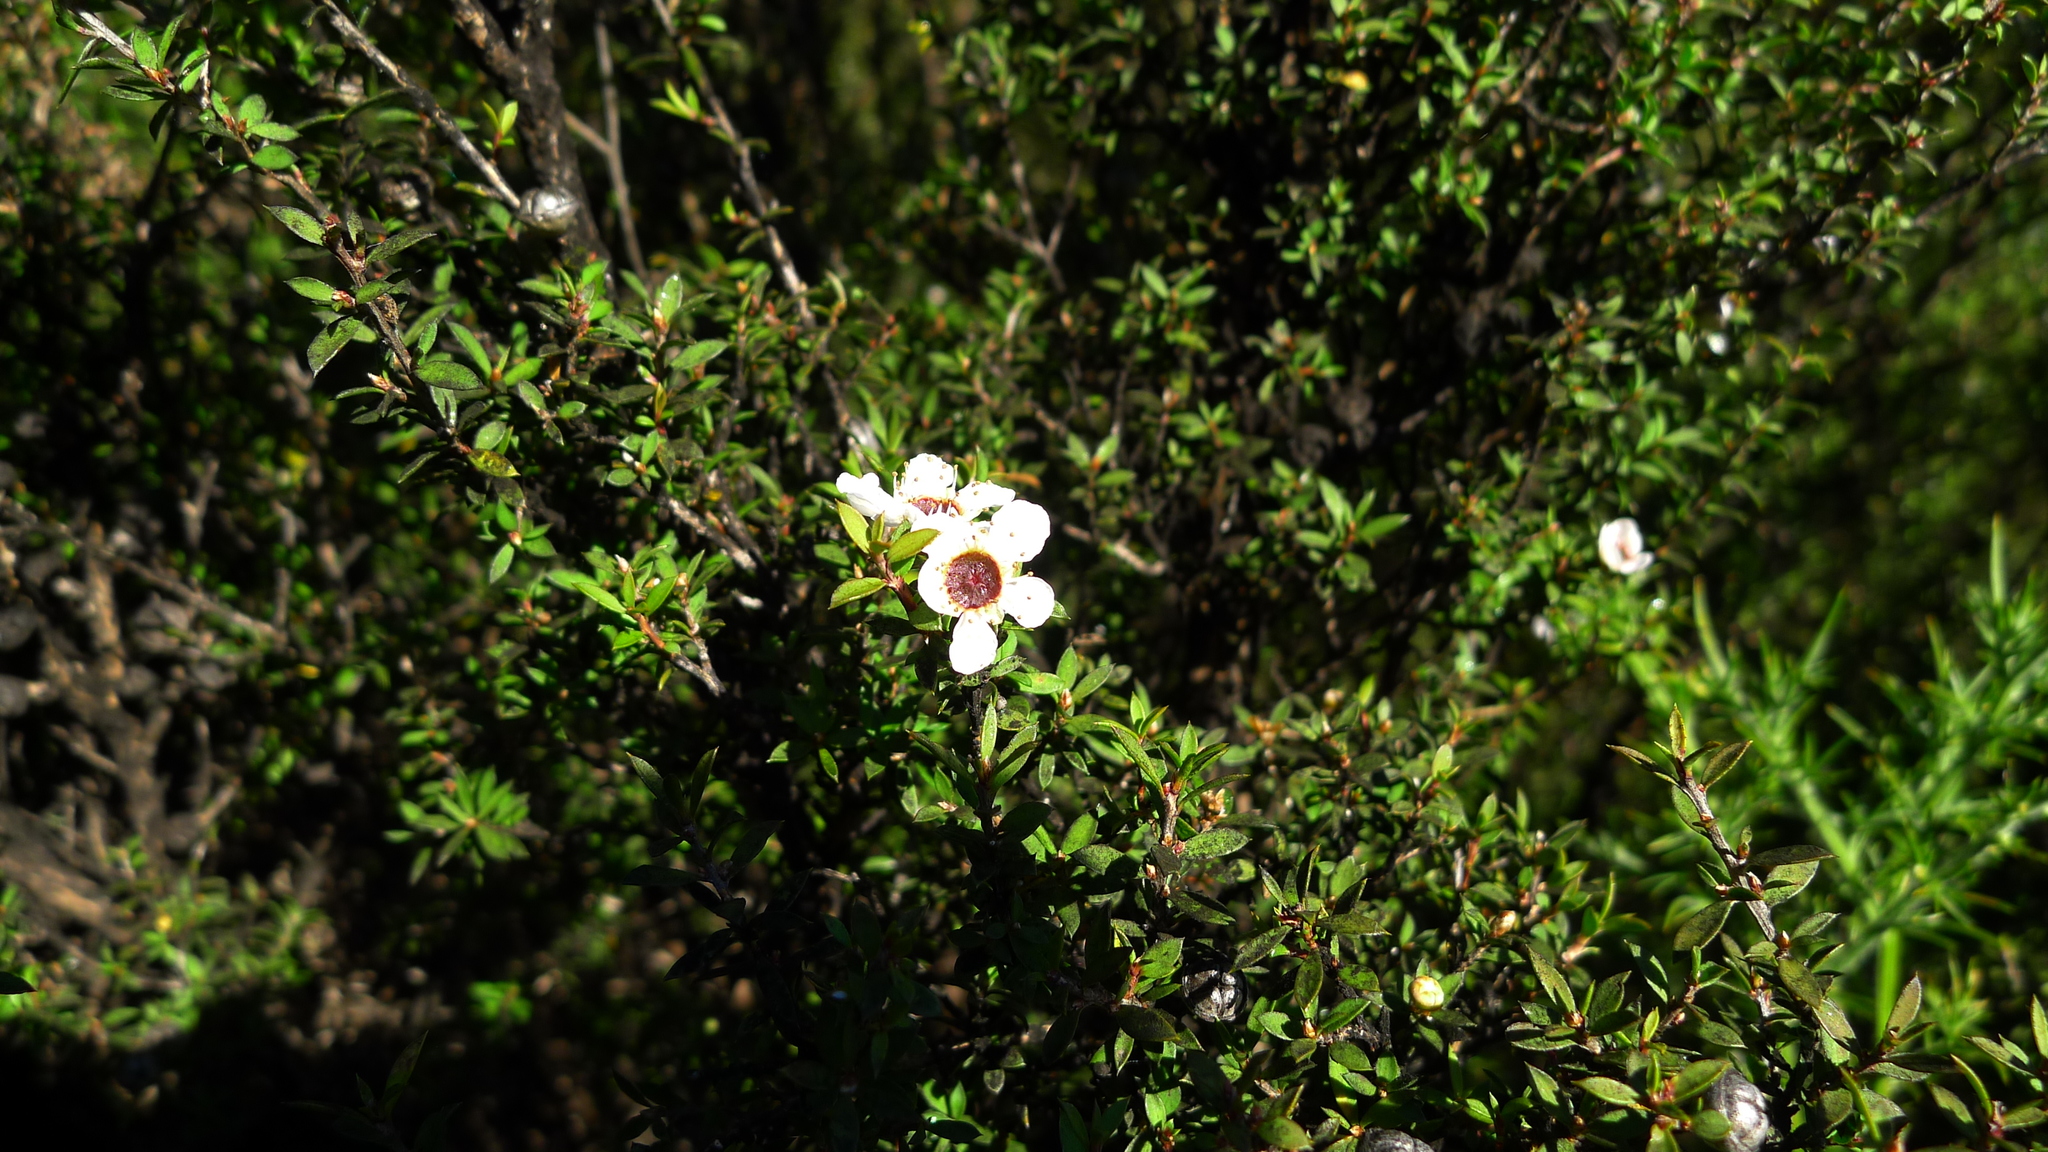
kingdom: Plantae
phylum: Tracheophyta
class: Magnoliopsida
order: Myrtales
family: Myrtaceae
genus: Leptospermum
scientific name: Leptospermum scoparium
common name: Broom tea-tree
